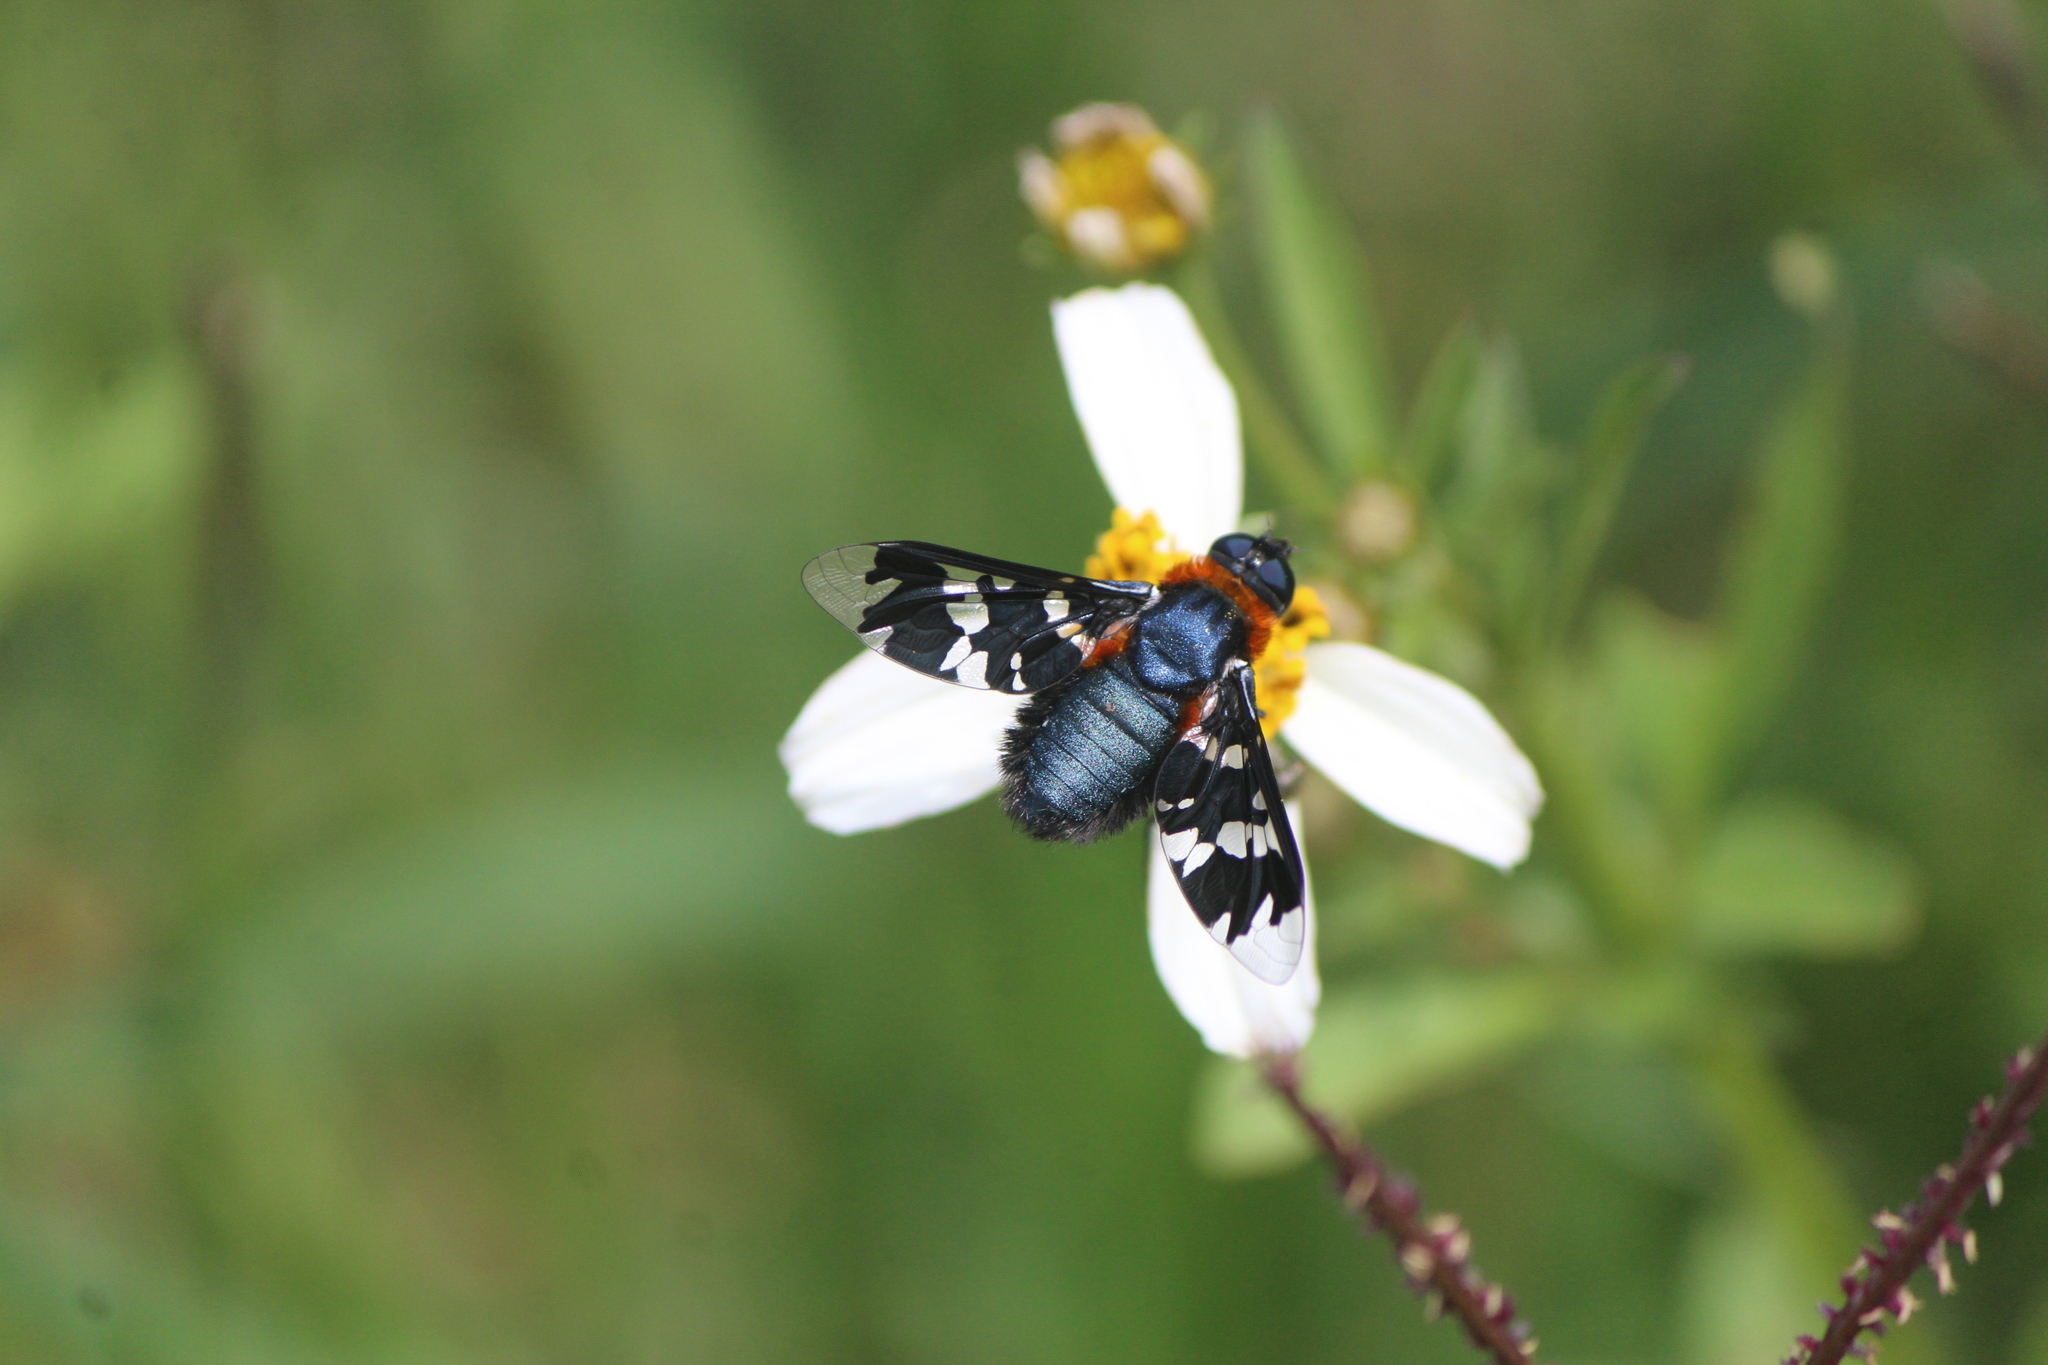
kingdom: Animalia
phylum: Arthropoda
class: Insecta
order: Diptera
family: Bombyliidae
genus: Exoprosopa
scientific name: Exoprosopa rhea
